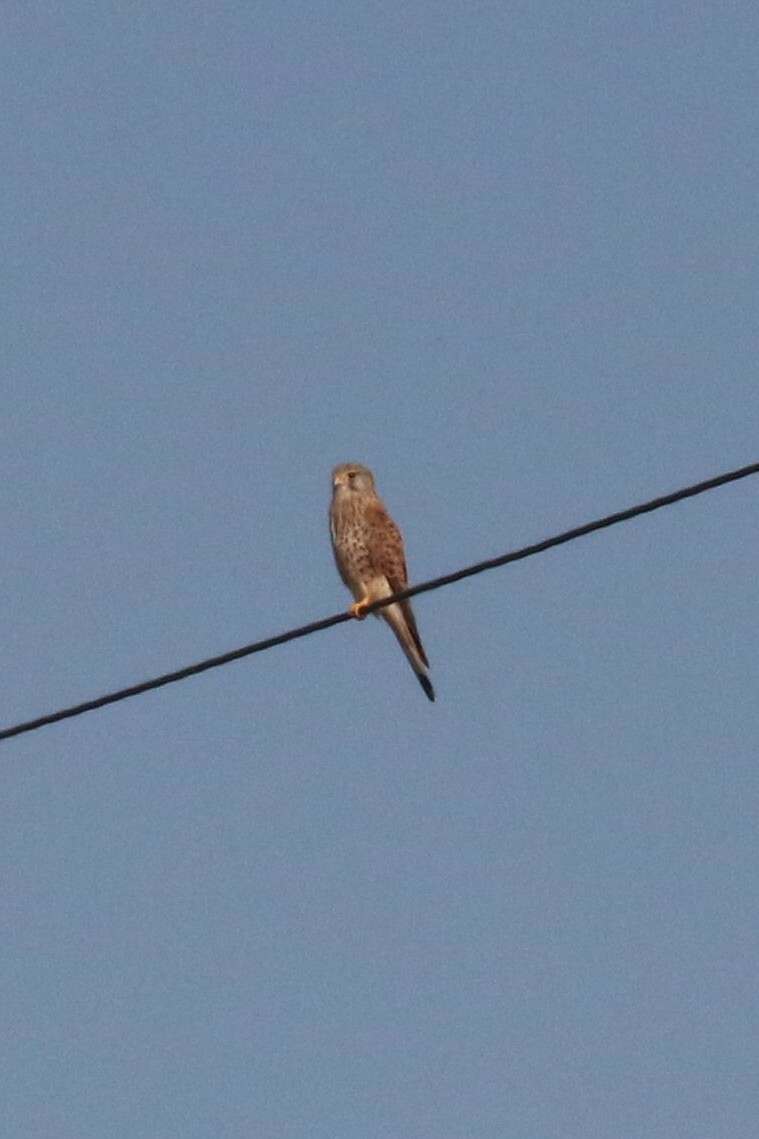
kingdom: Animalia
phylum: Chordata
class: Aves
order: Falconiformes
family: Falconidae
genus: Falco
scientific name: Falco tinnunculus
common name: Common kestrel
